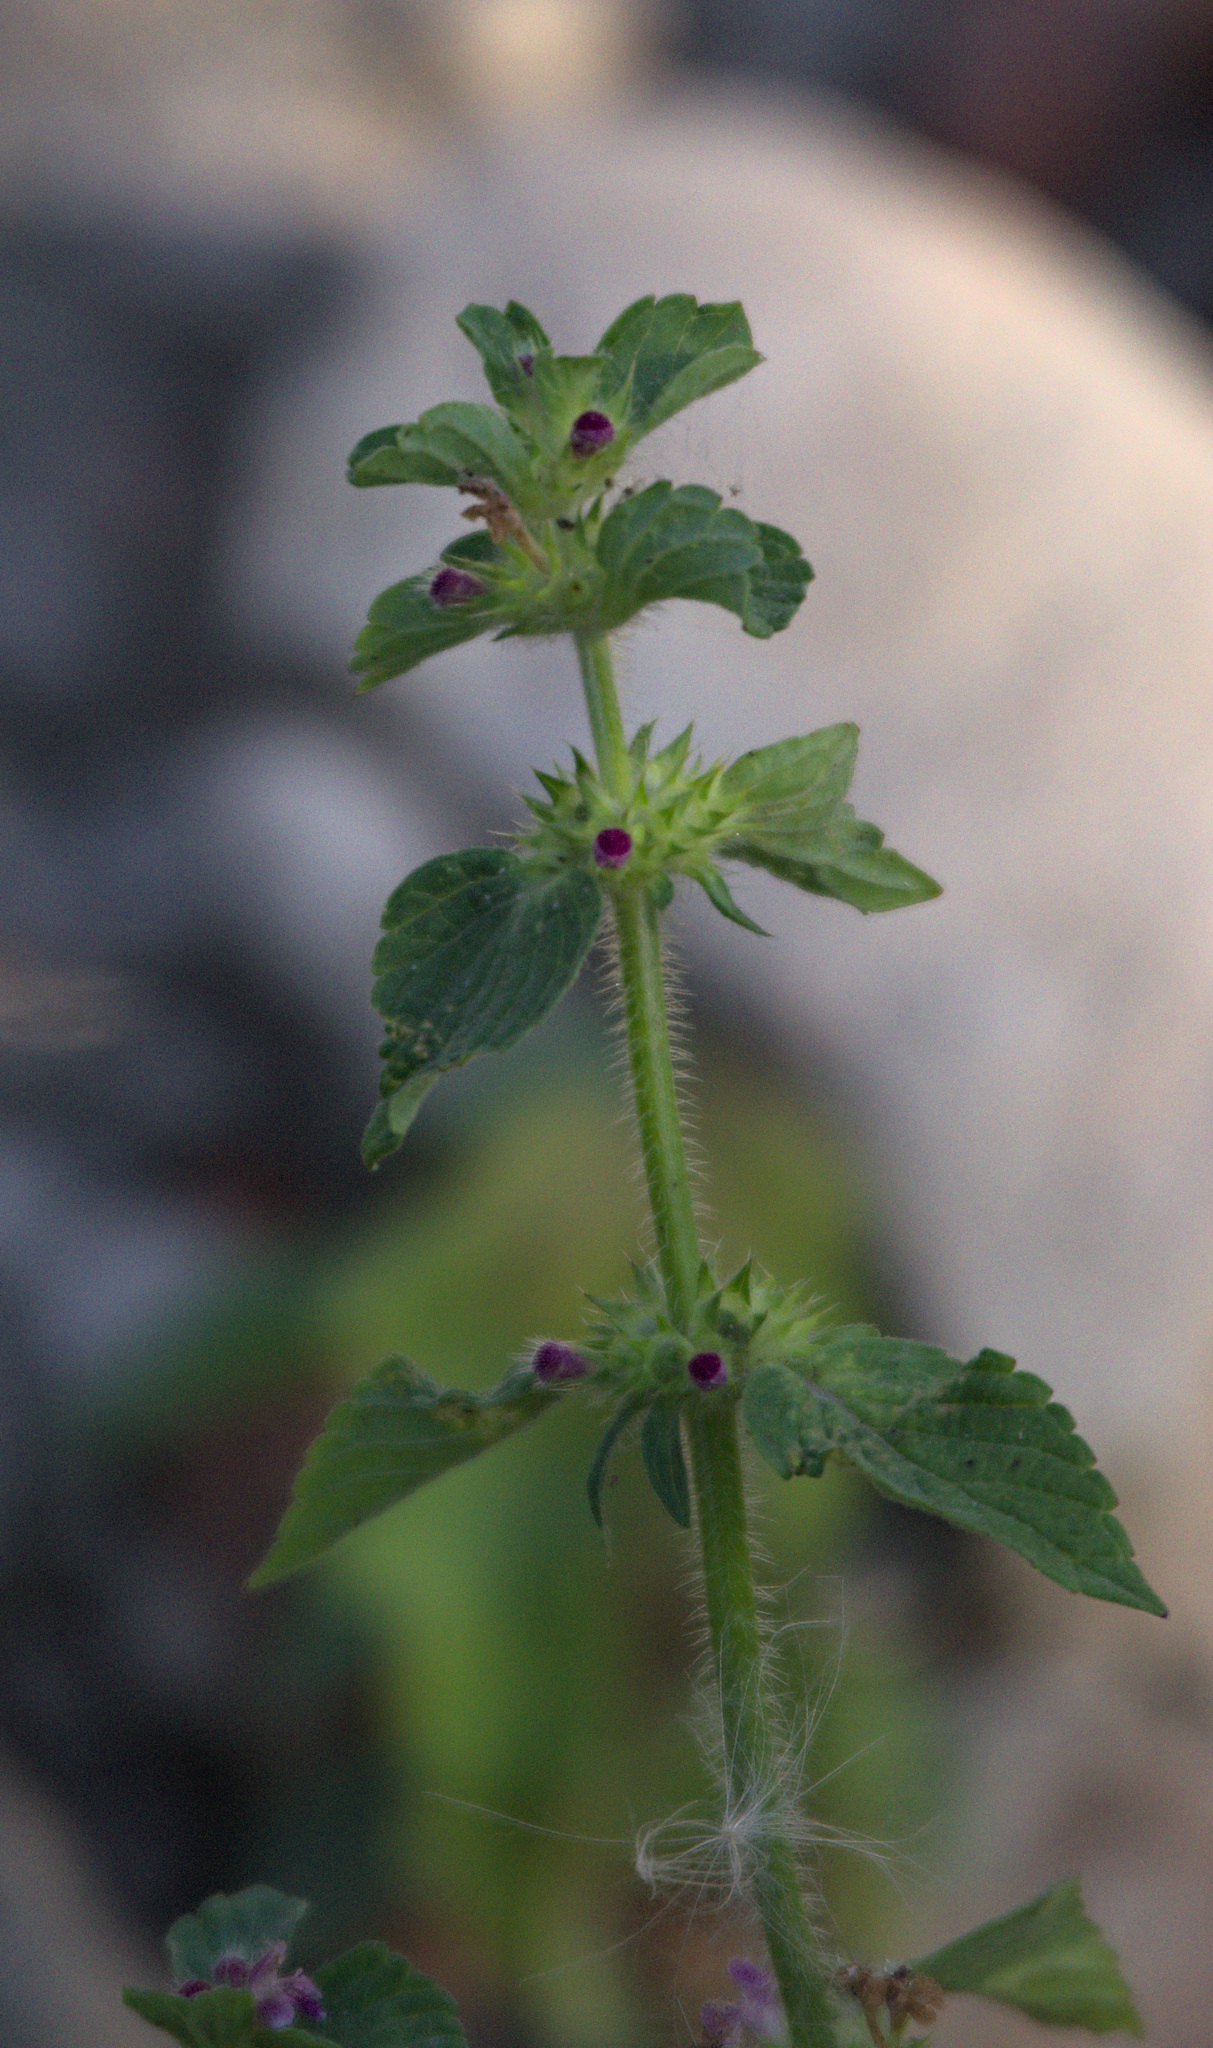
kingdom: Plantae
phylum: Tracheophyta
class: Magnoliopsida
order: Lamiales
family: Lamiaceae
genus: Galeopsis
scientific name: Galeopsis bifida
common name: Bifid hemp-nettle
